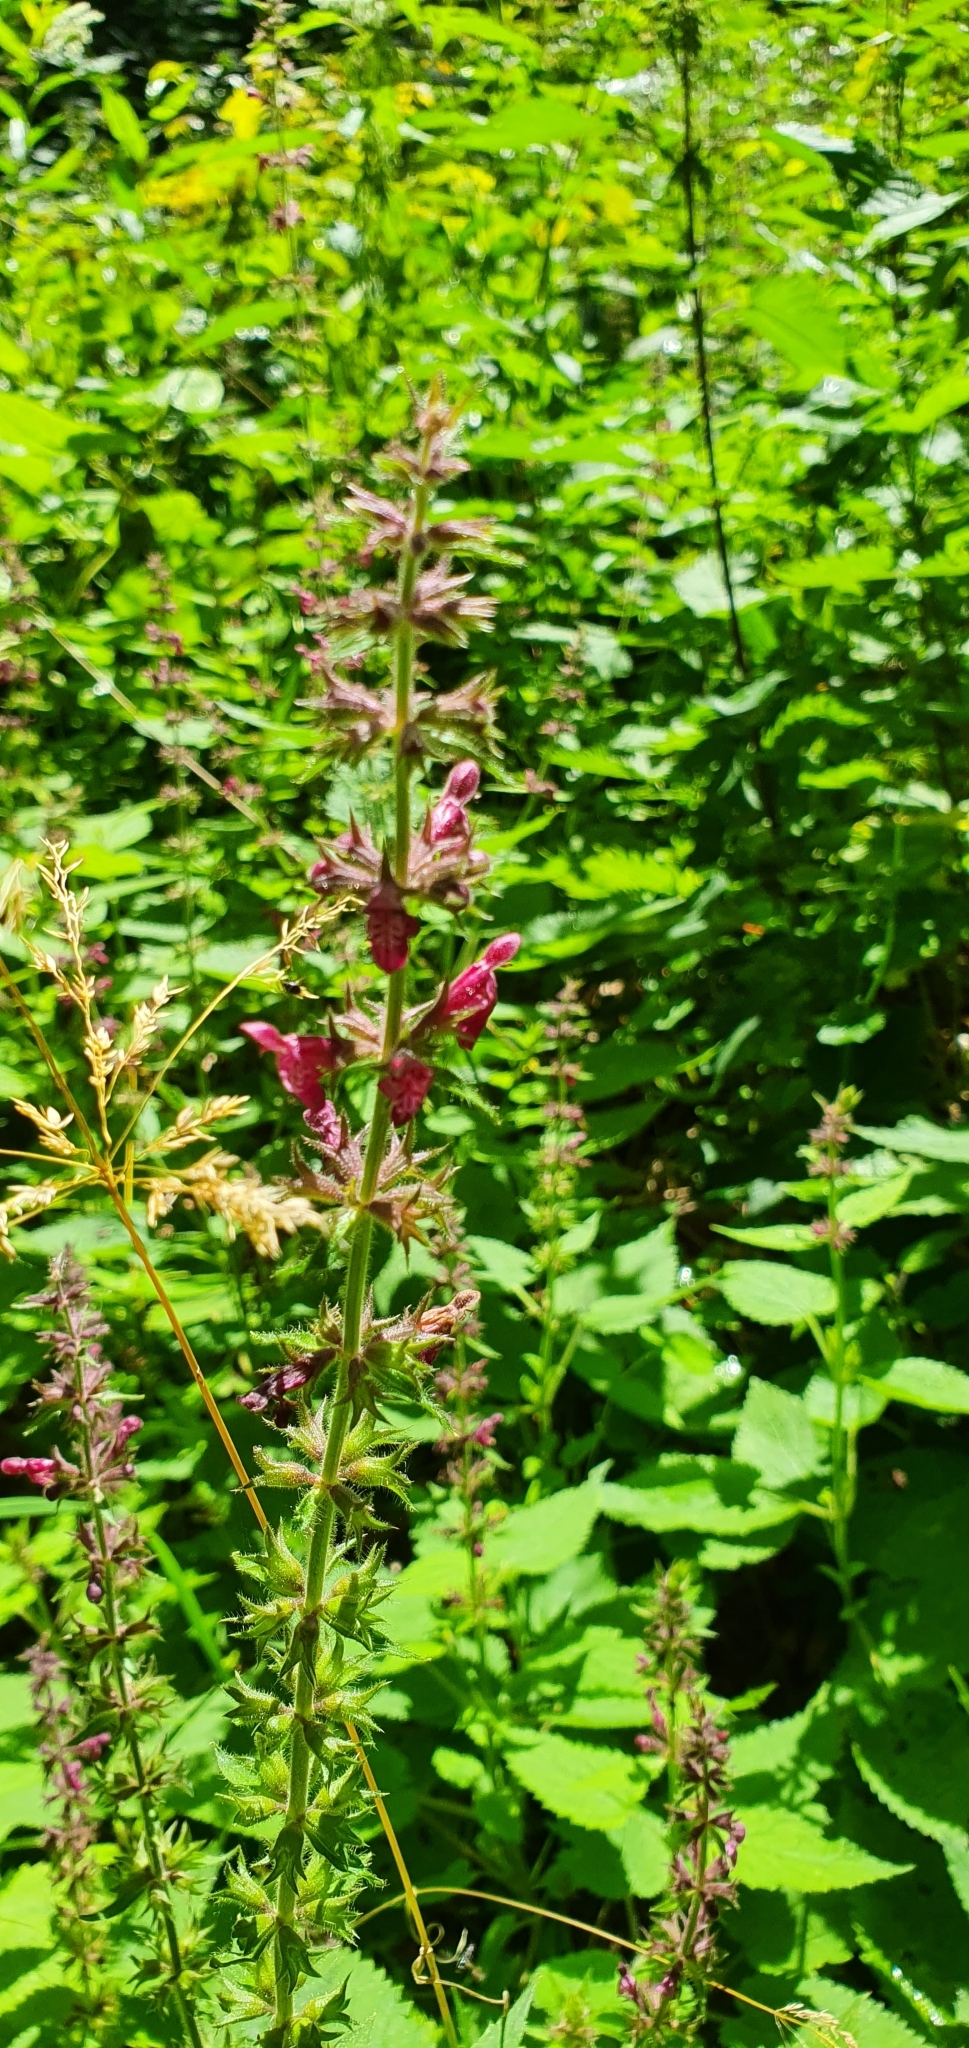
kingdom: Plantae
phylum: Tracheophyta
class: Magnoliopsida
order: Lamiales
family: Lamiaceae
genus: Stachys
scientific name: Stachys sylvatica
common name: Hedge woundwort
